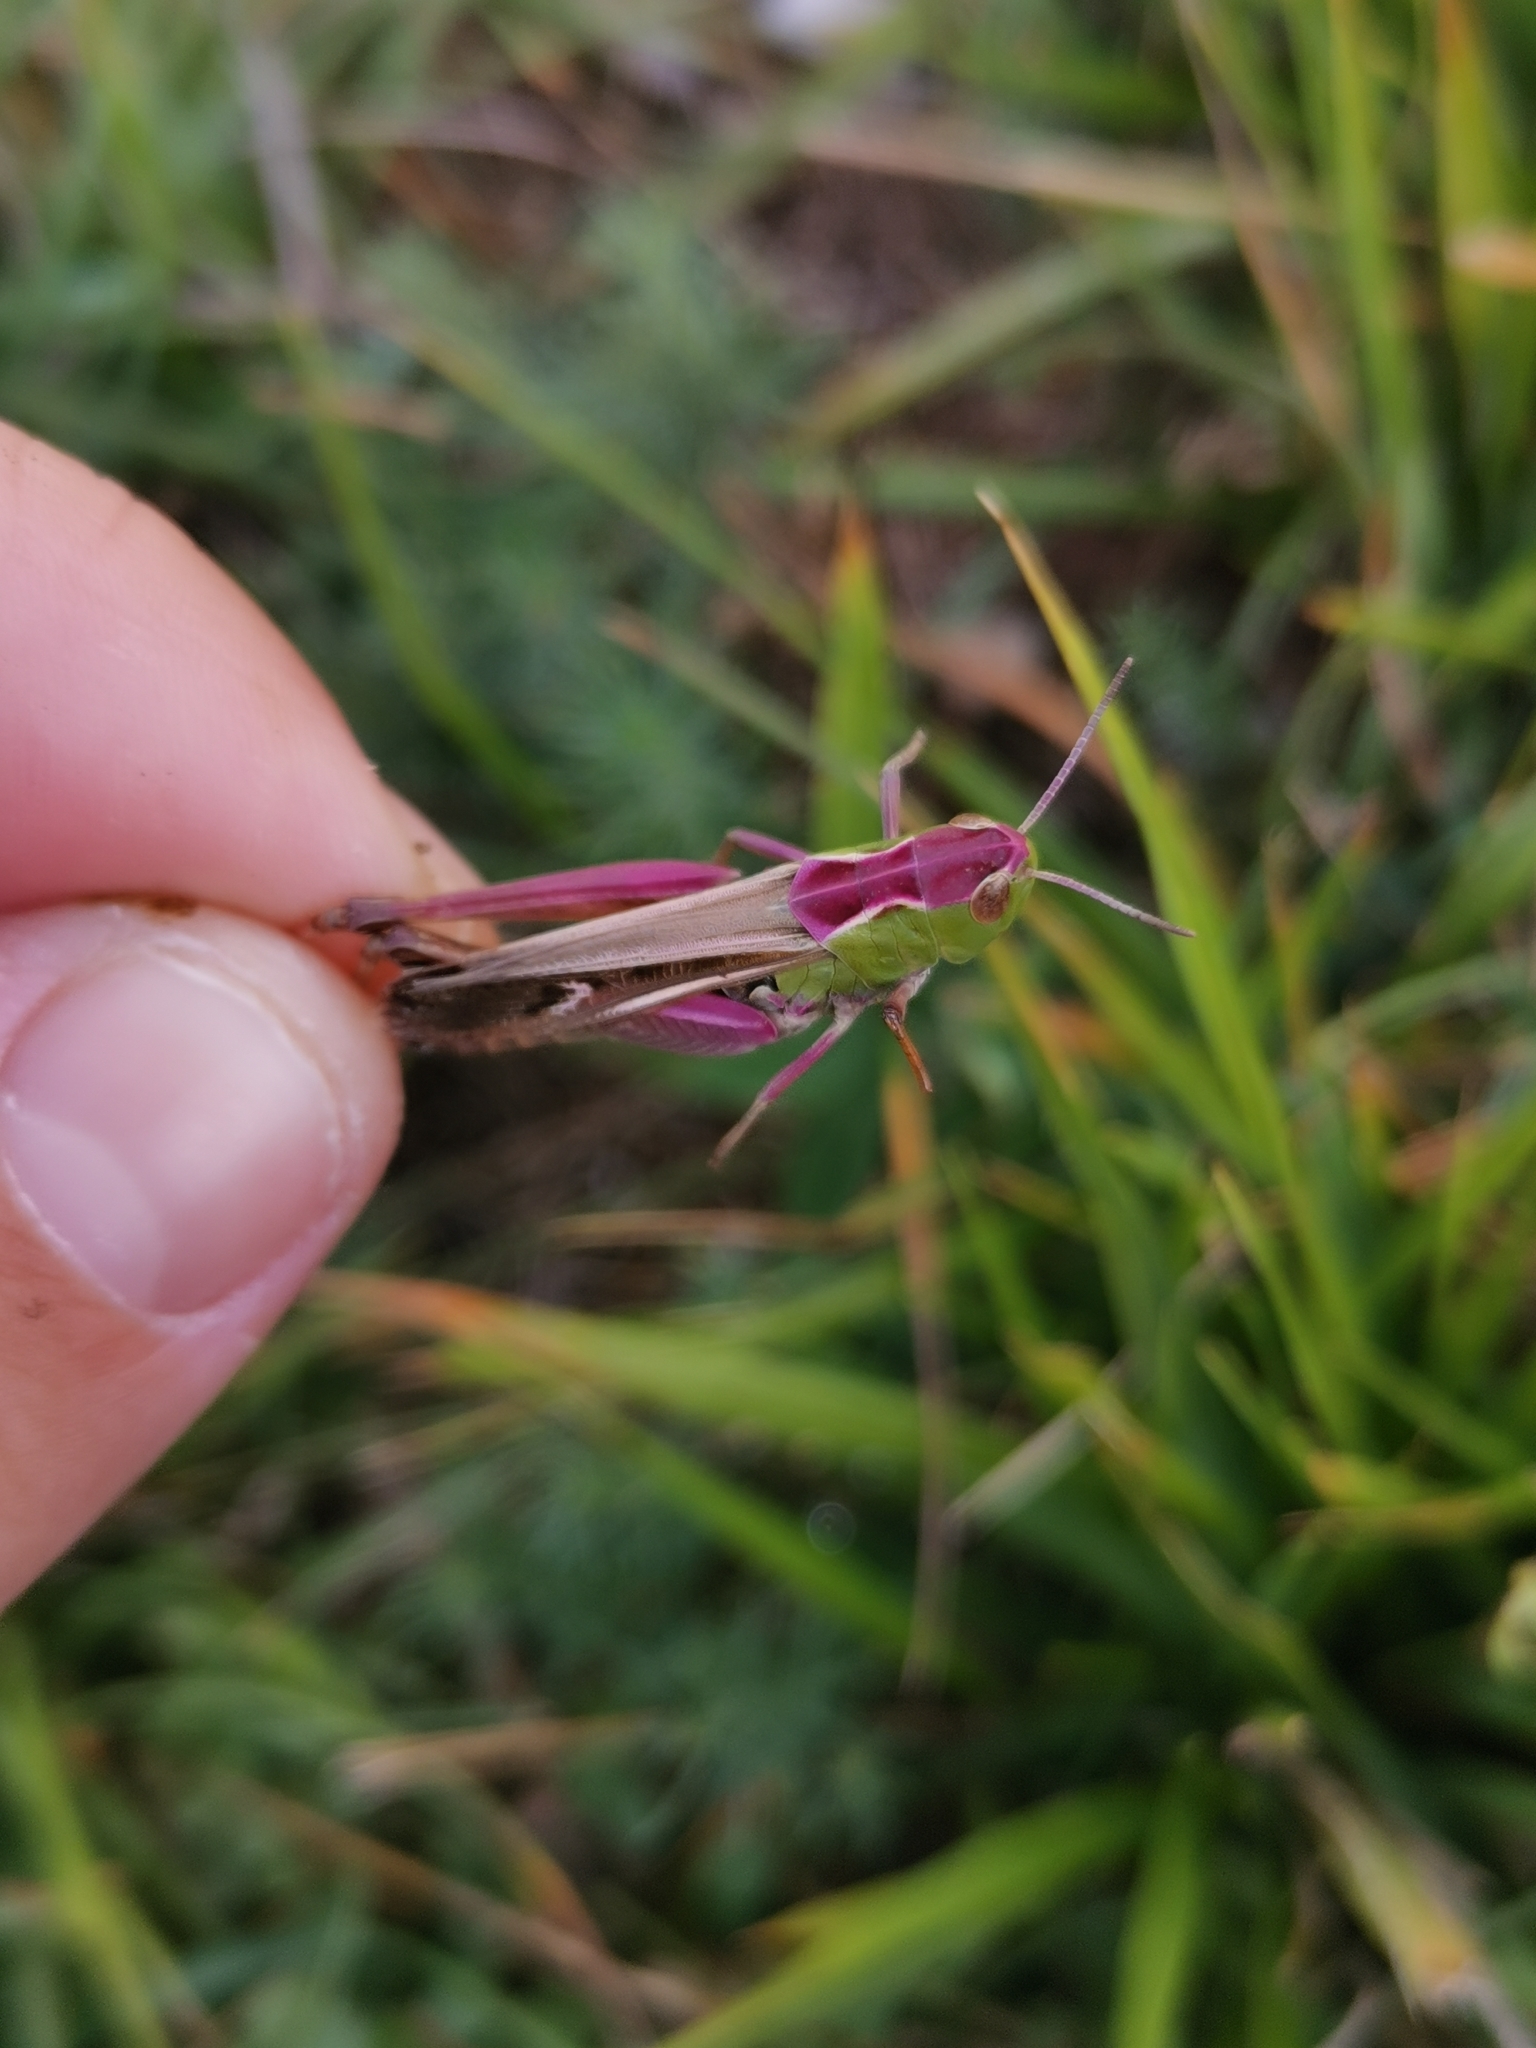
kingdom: Animalia
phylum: Arthropoda
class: Insecta
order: Orthoptera
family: Acrididae
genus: Stenobothrus
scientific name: Stenobothrus lineatus
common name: Stripe-winged grasshopper
